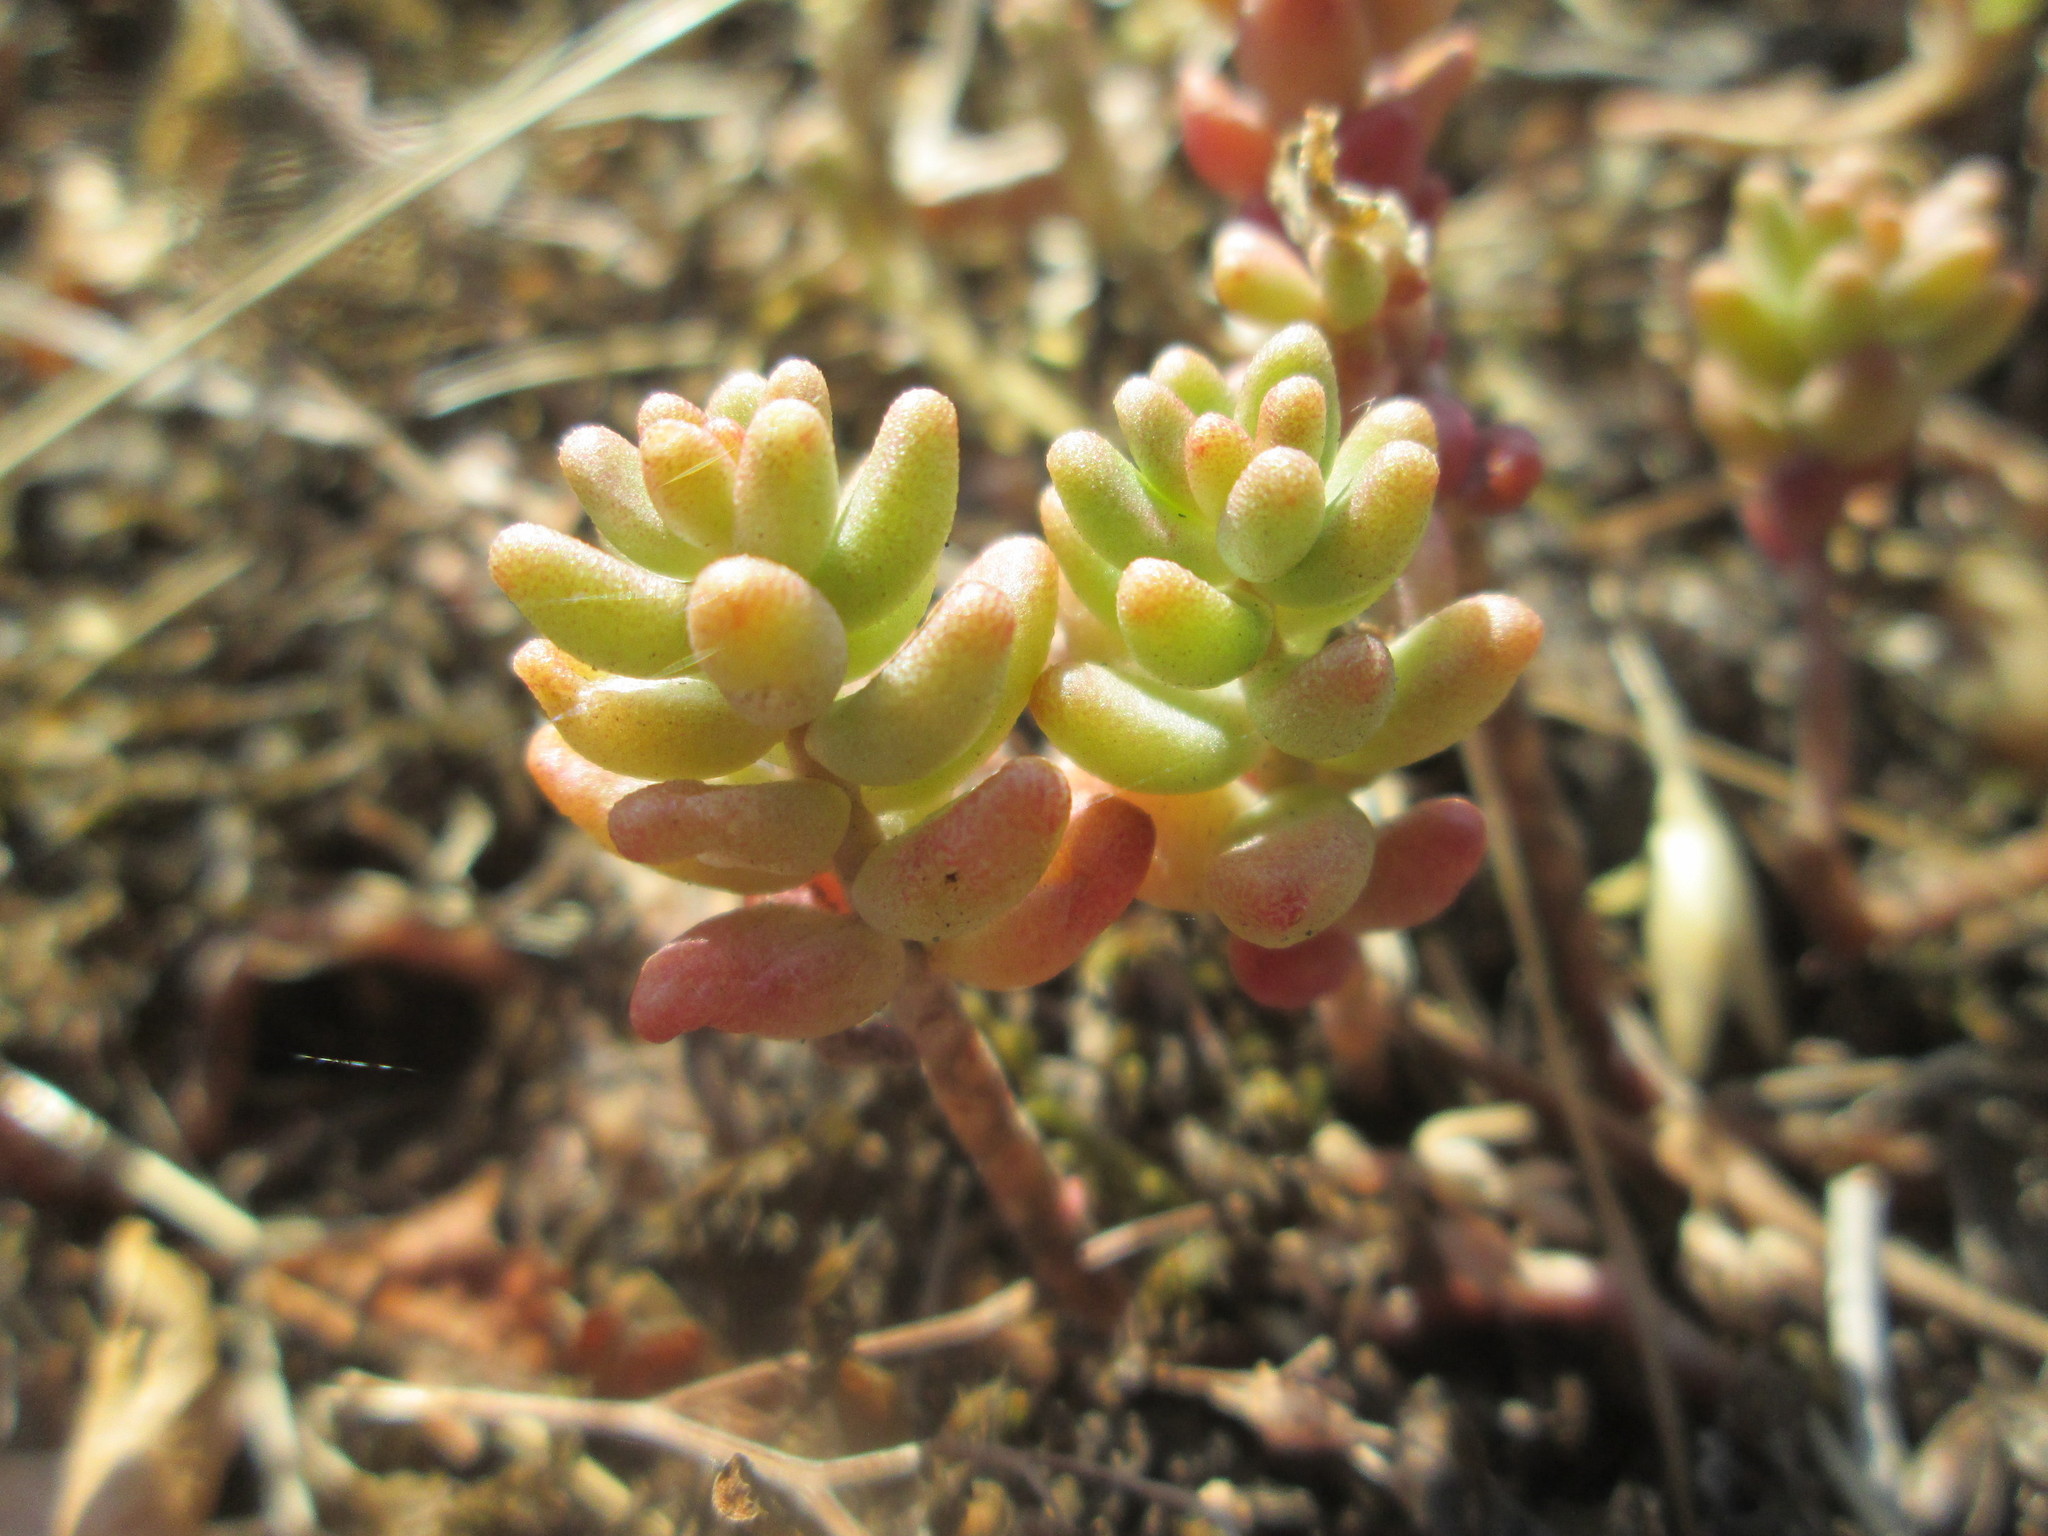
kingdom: Plantae
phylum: Tracheophyta
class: Magnoliopsida
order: Saxifragales
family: Crassulaceae
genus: Sedum
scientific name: Sedum album
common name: White stonecrop
